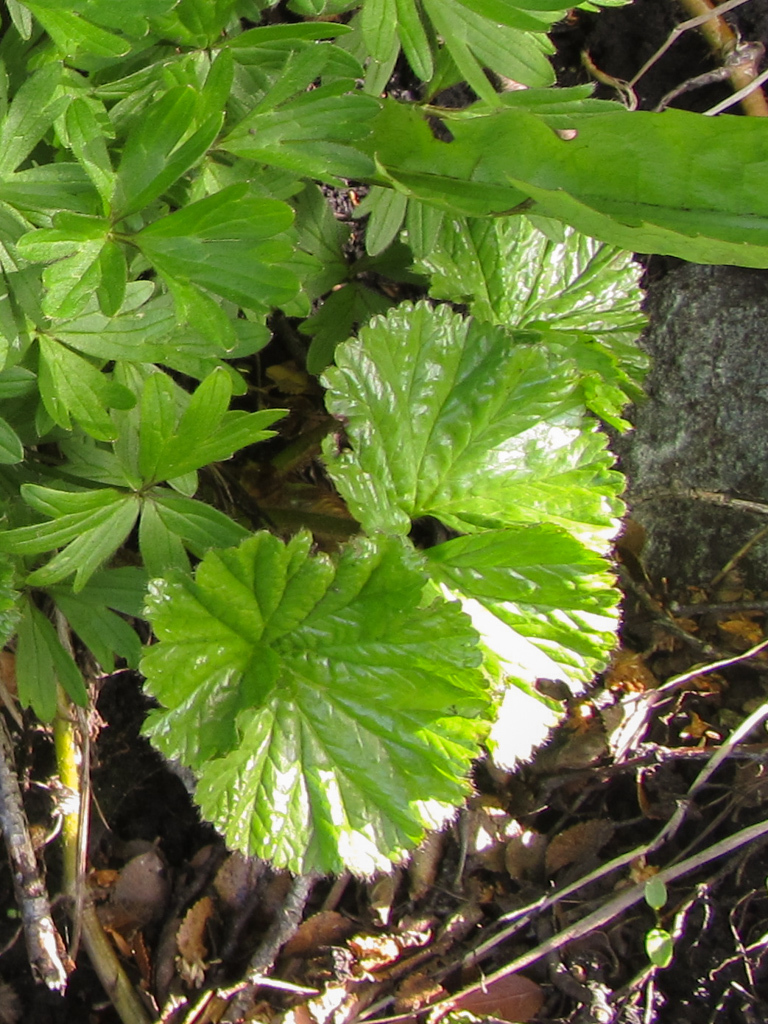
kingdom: Plantae
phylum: Tracheophyta
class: Magnoliopsida
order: Gunnerales
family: Gunneraceae
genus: Gunnera
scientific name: Gunnera magellanica
